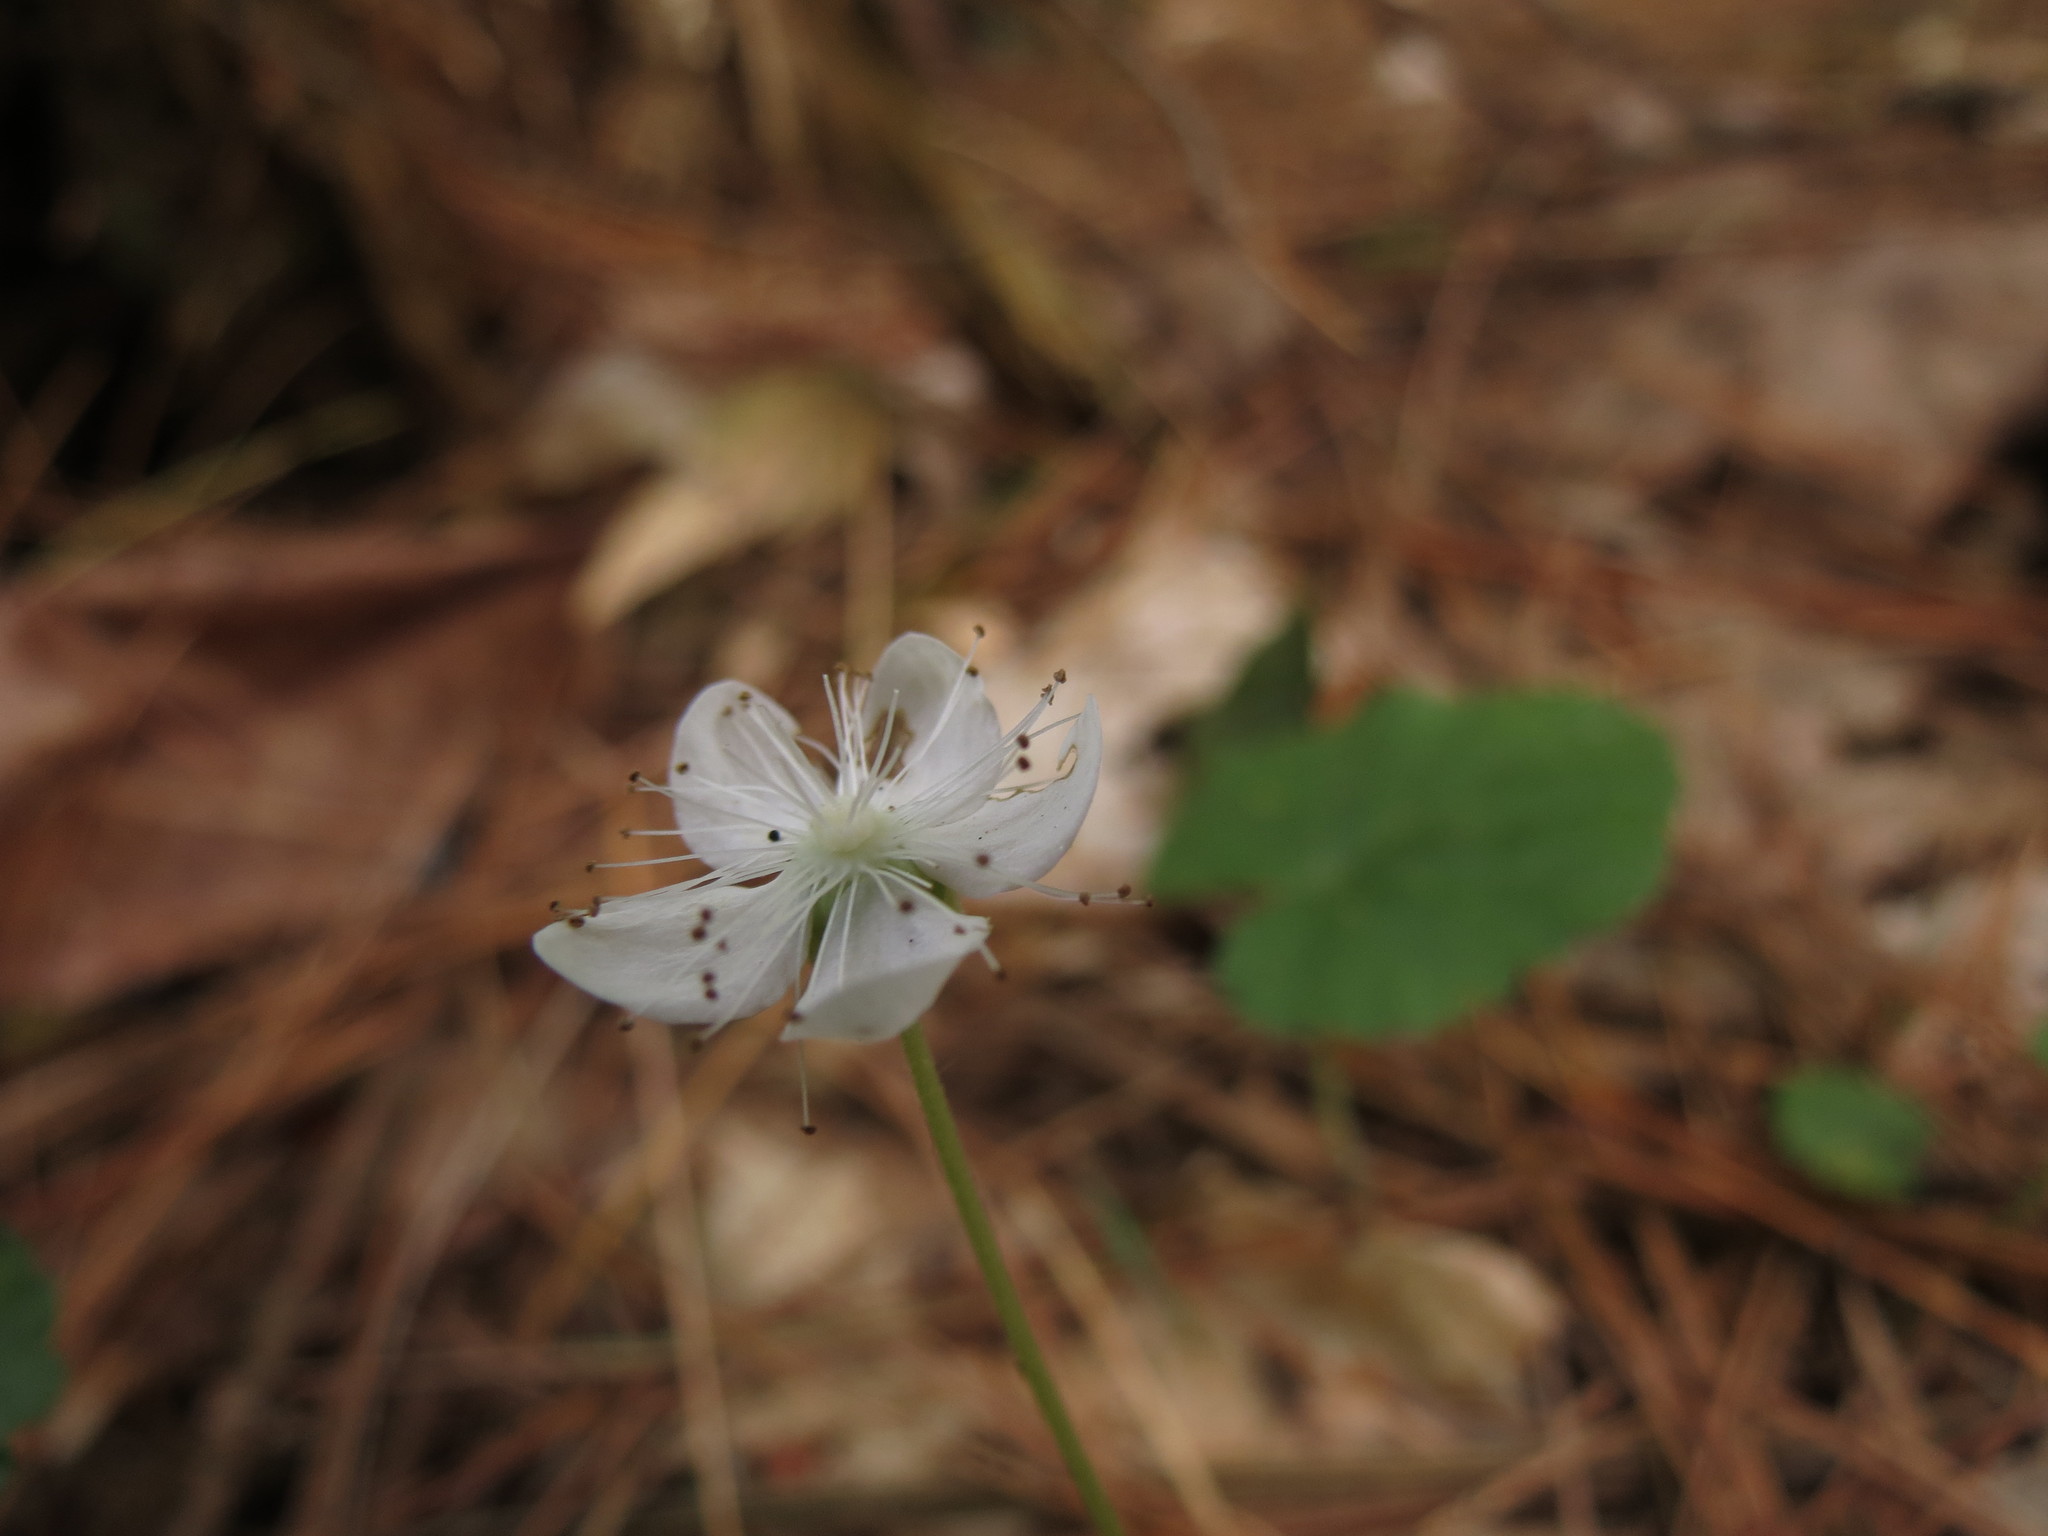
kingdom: Plantae
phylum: Tracheophyta
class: Magnoliopsida
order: Rosales
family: Rosaceae
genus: Dalibarda
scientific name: Dalibarda repens
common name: Dewdrop
